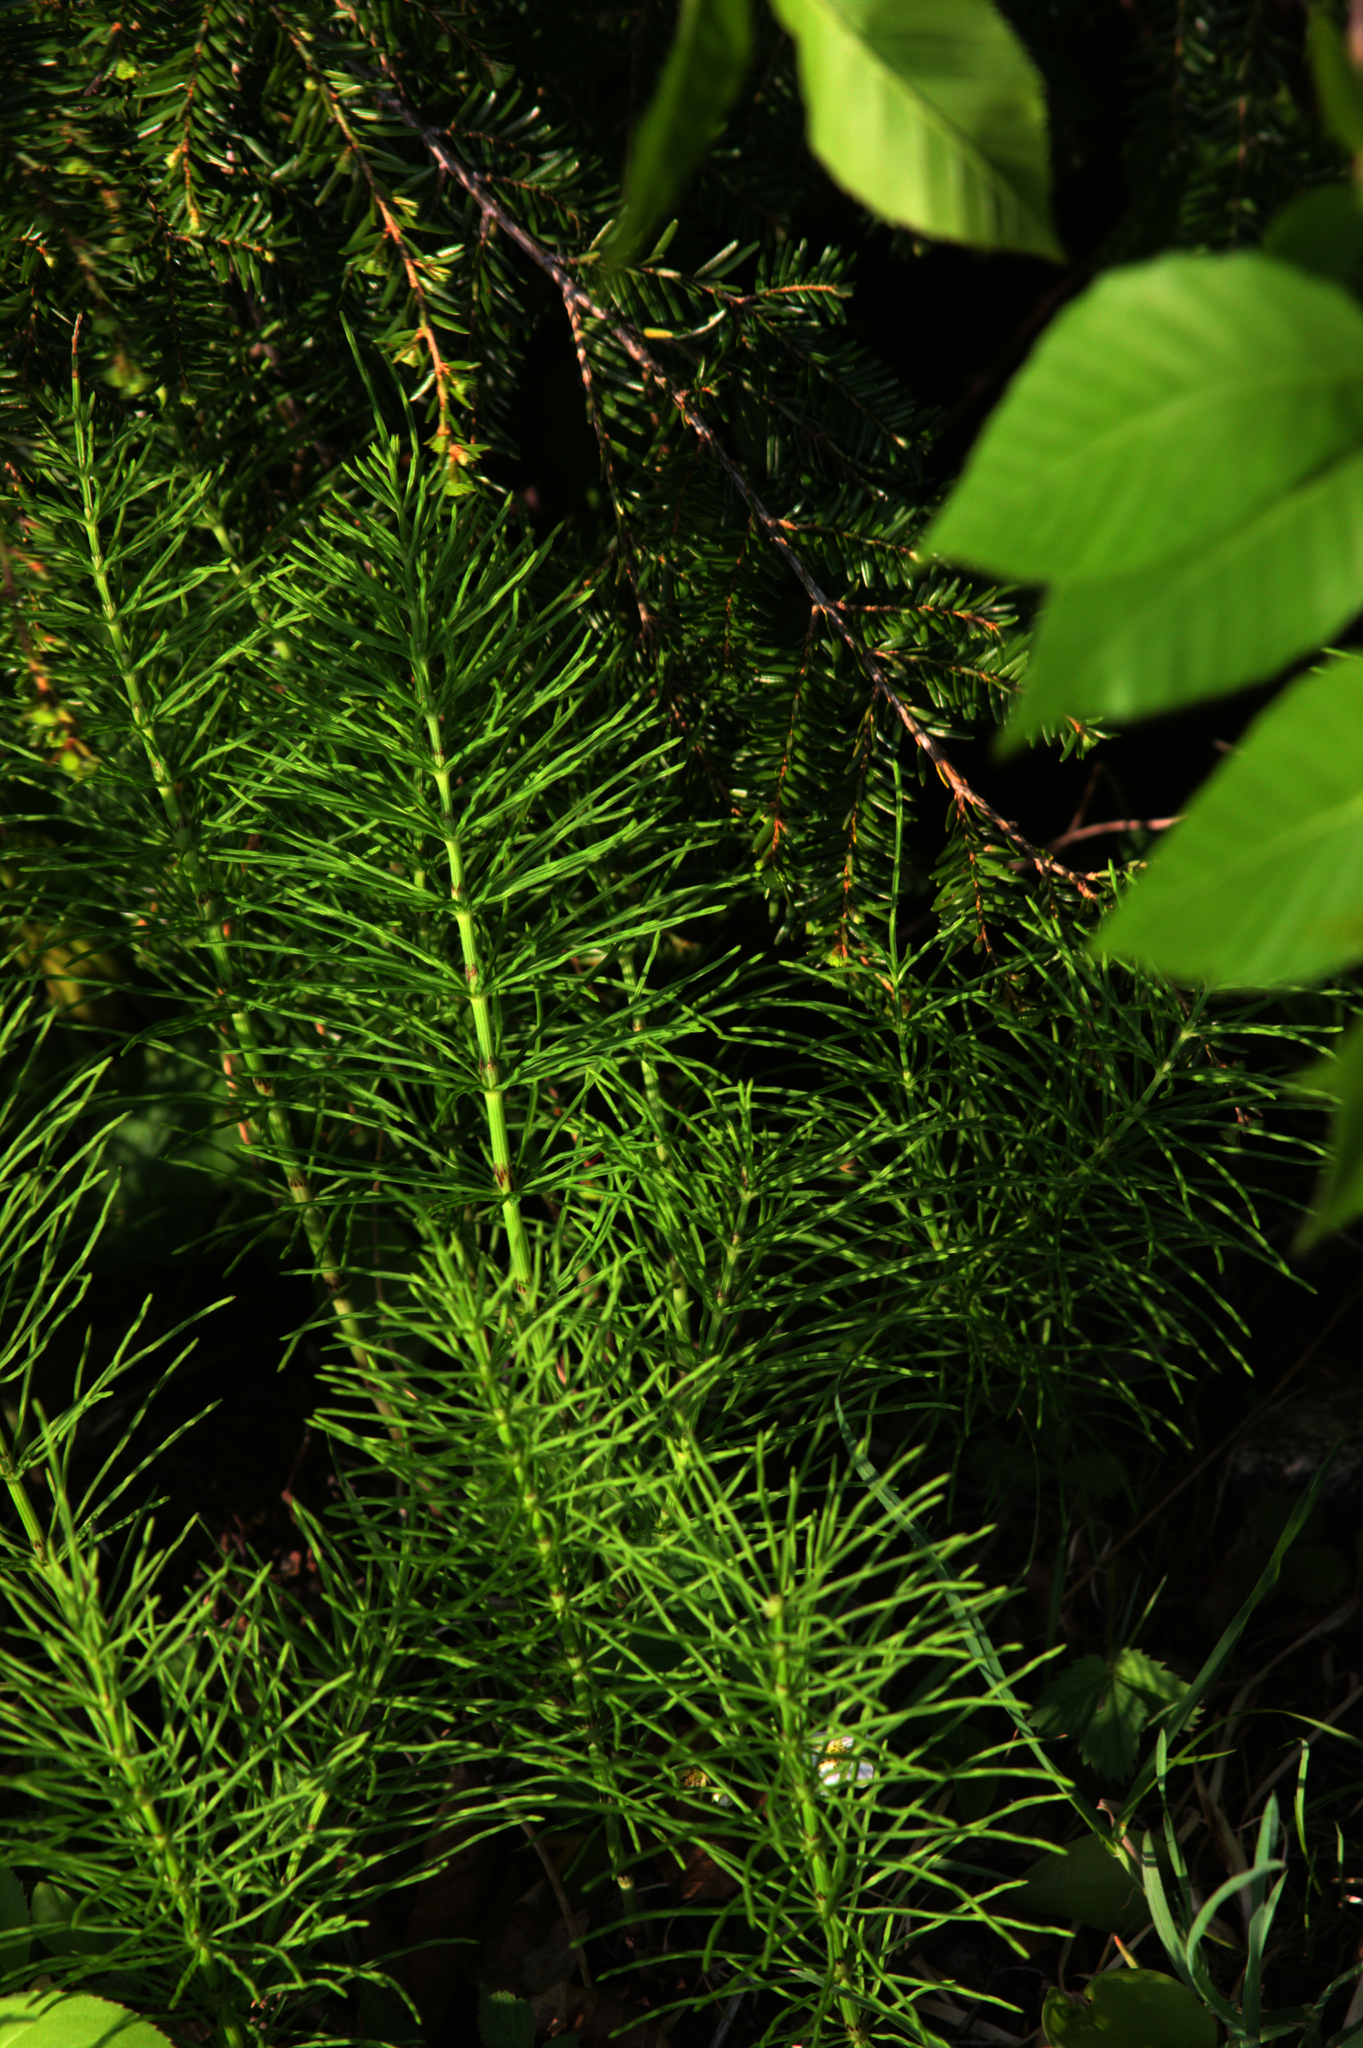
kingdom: Plantae
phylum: Tracheophyta
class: Polypodiopsida
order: Equisetales
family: Equisetaceae
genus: Equisetum
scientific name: Equisetum arvense
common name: Field horsetail
